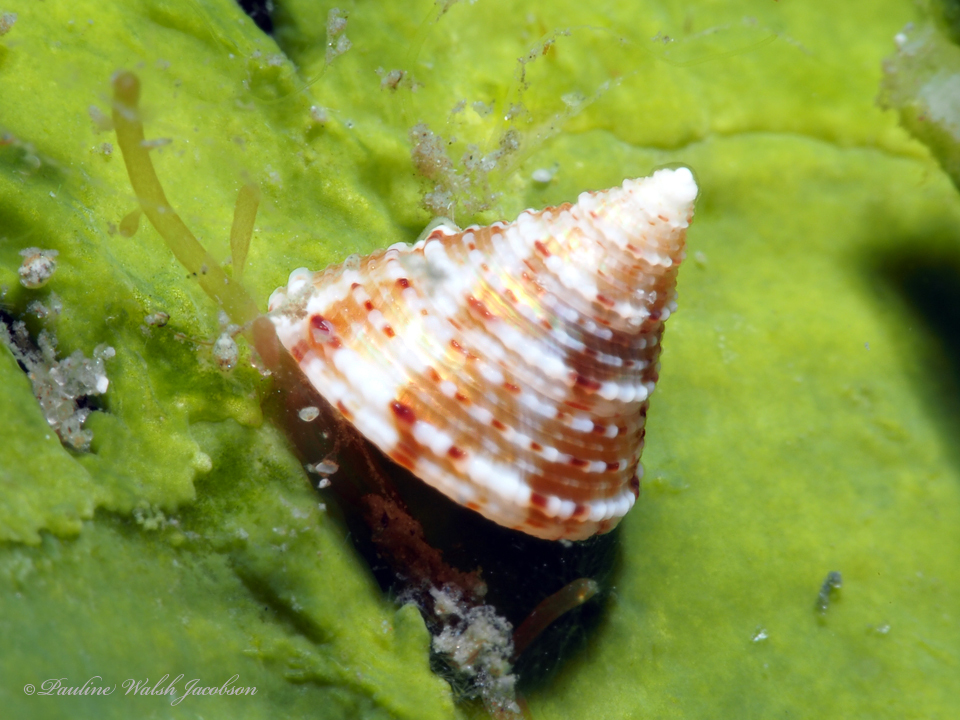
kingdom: Animalia
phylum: Mollusca
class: Gastropoda
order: Trochida
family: Calliostomatidae
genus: Calliostoma
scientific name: Calliostoma pulchrum
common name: Beautiful topsnail
